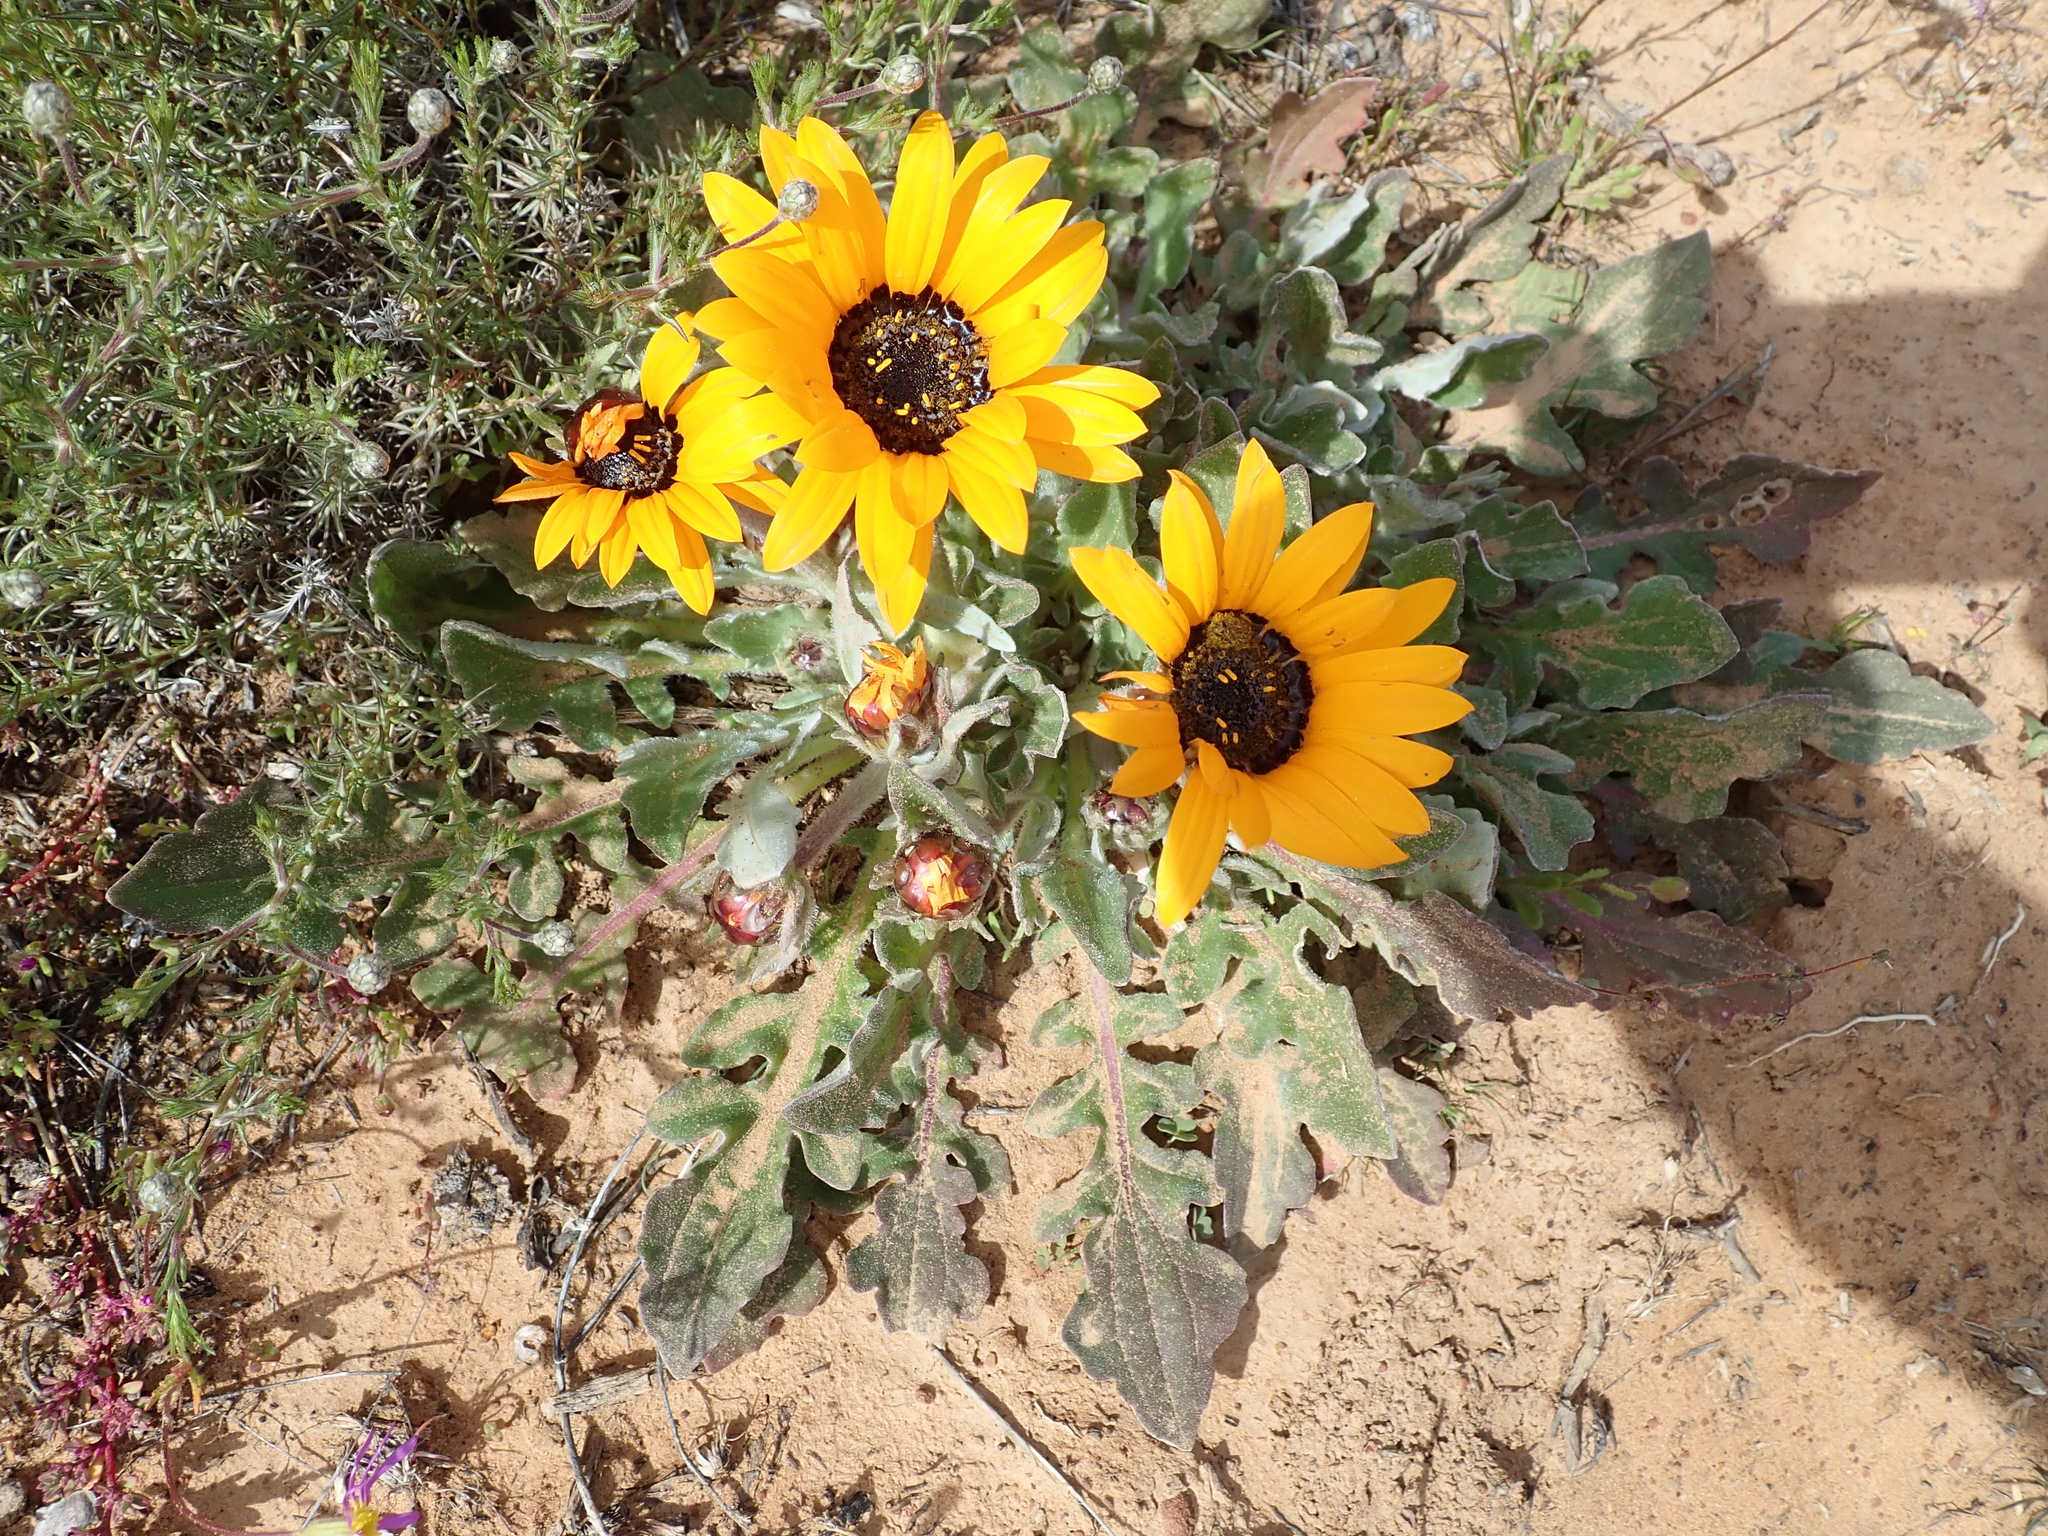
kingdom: Plantae
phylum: Tracheophyta
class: Magnoliopsida
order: Asterales
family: Asteraceae
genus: Arctotis
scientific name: Arctotis acaulis
